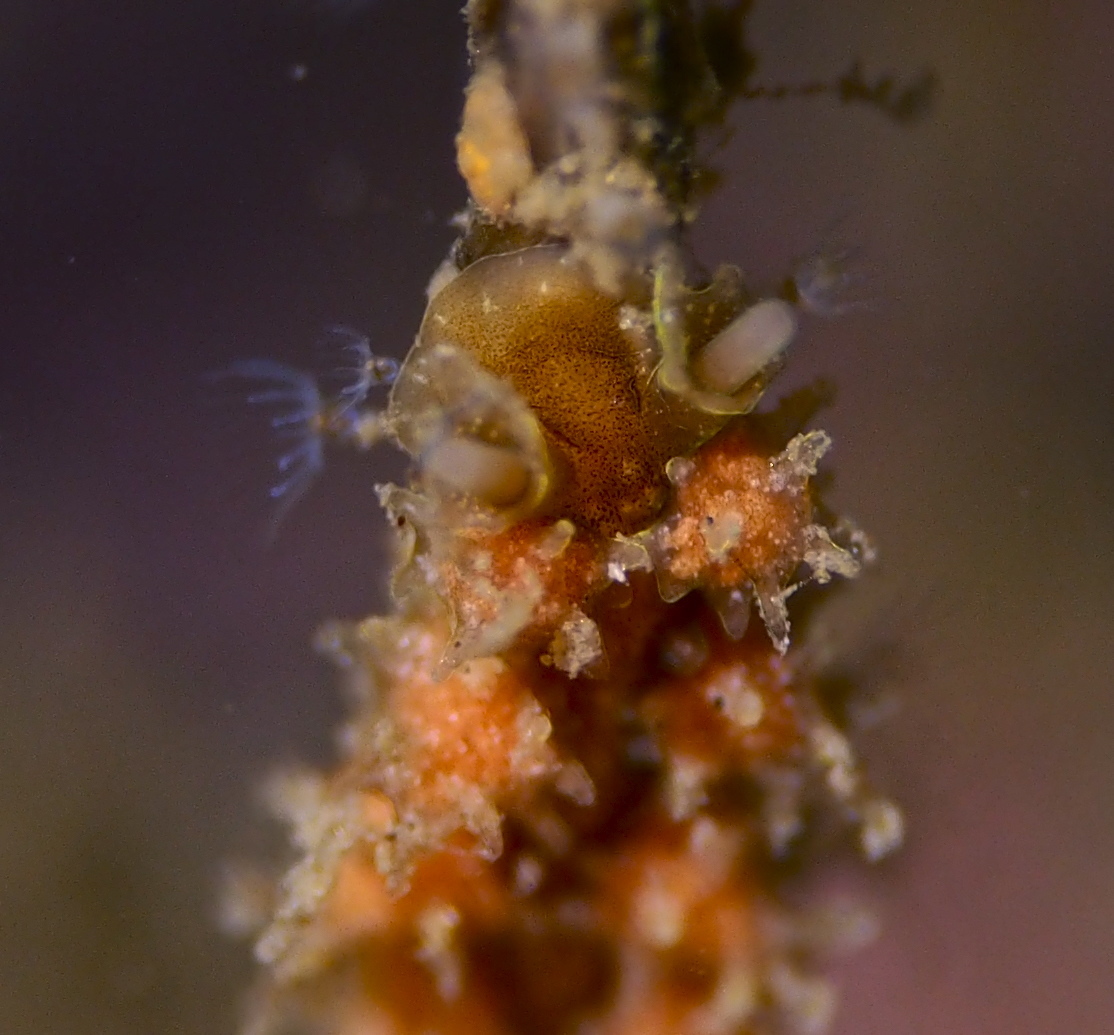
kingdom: Animalia
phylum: Mollusca
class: Gastropoda
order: Nudibranchia
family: Dotidae
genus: Doto
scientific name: Doto hystrix
